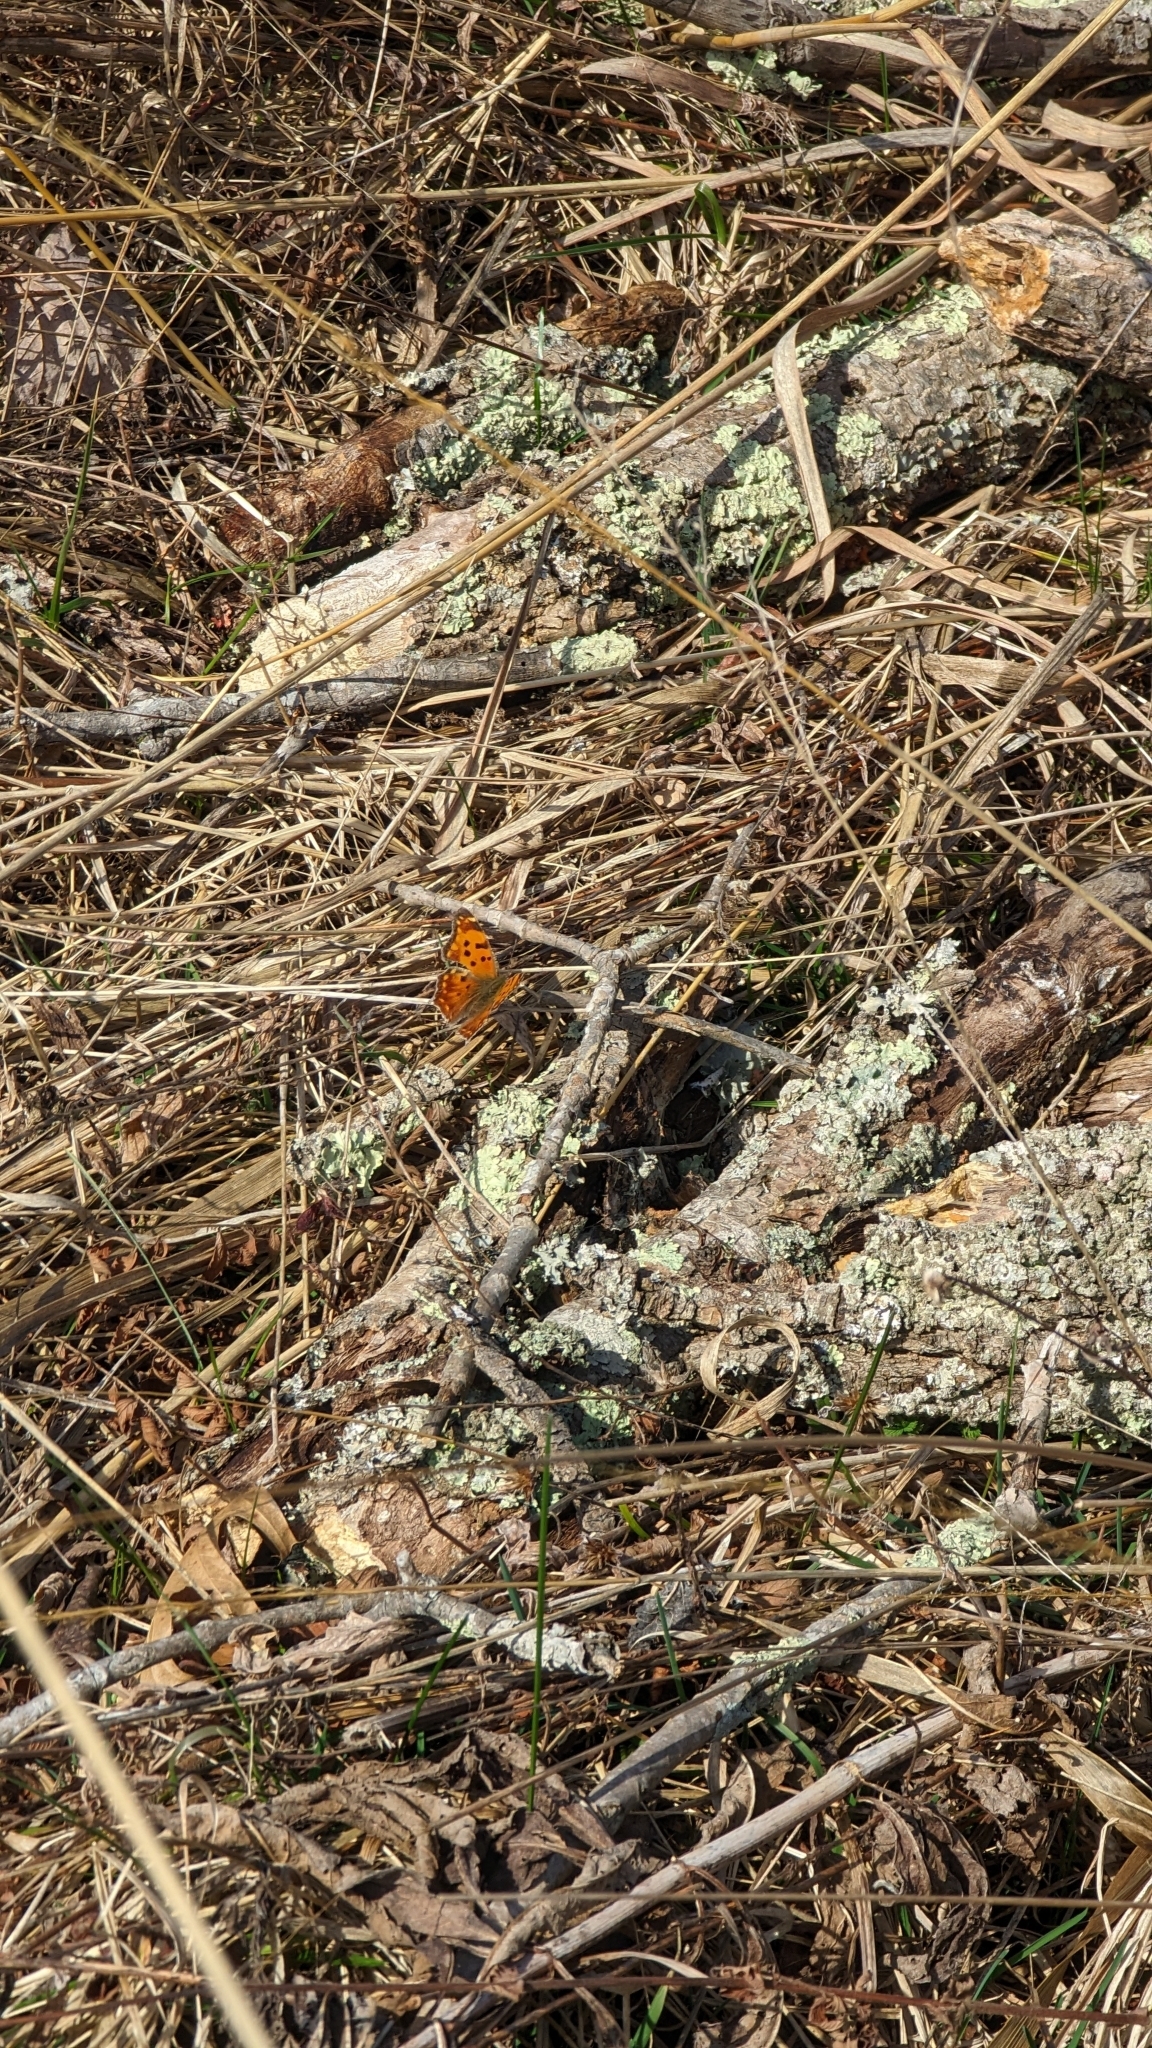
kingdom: Animalia
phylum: Arthropoda
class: Insecta
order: Lepidoptera
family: Nymphalidae
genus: Polygonia
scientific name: Polygonia comma
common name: Eastern comma
